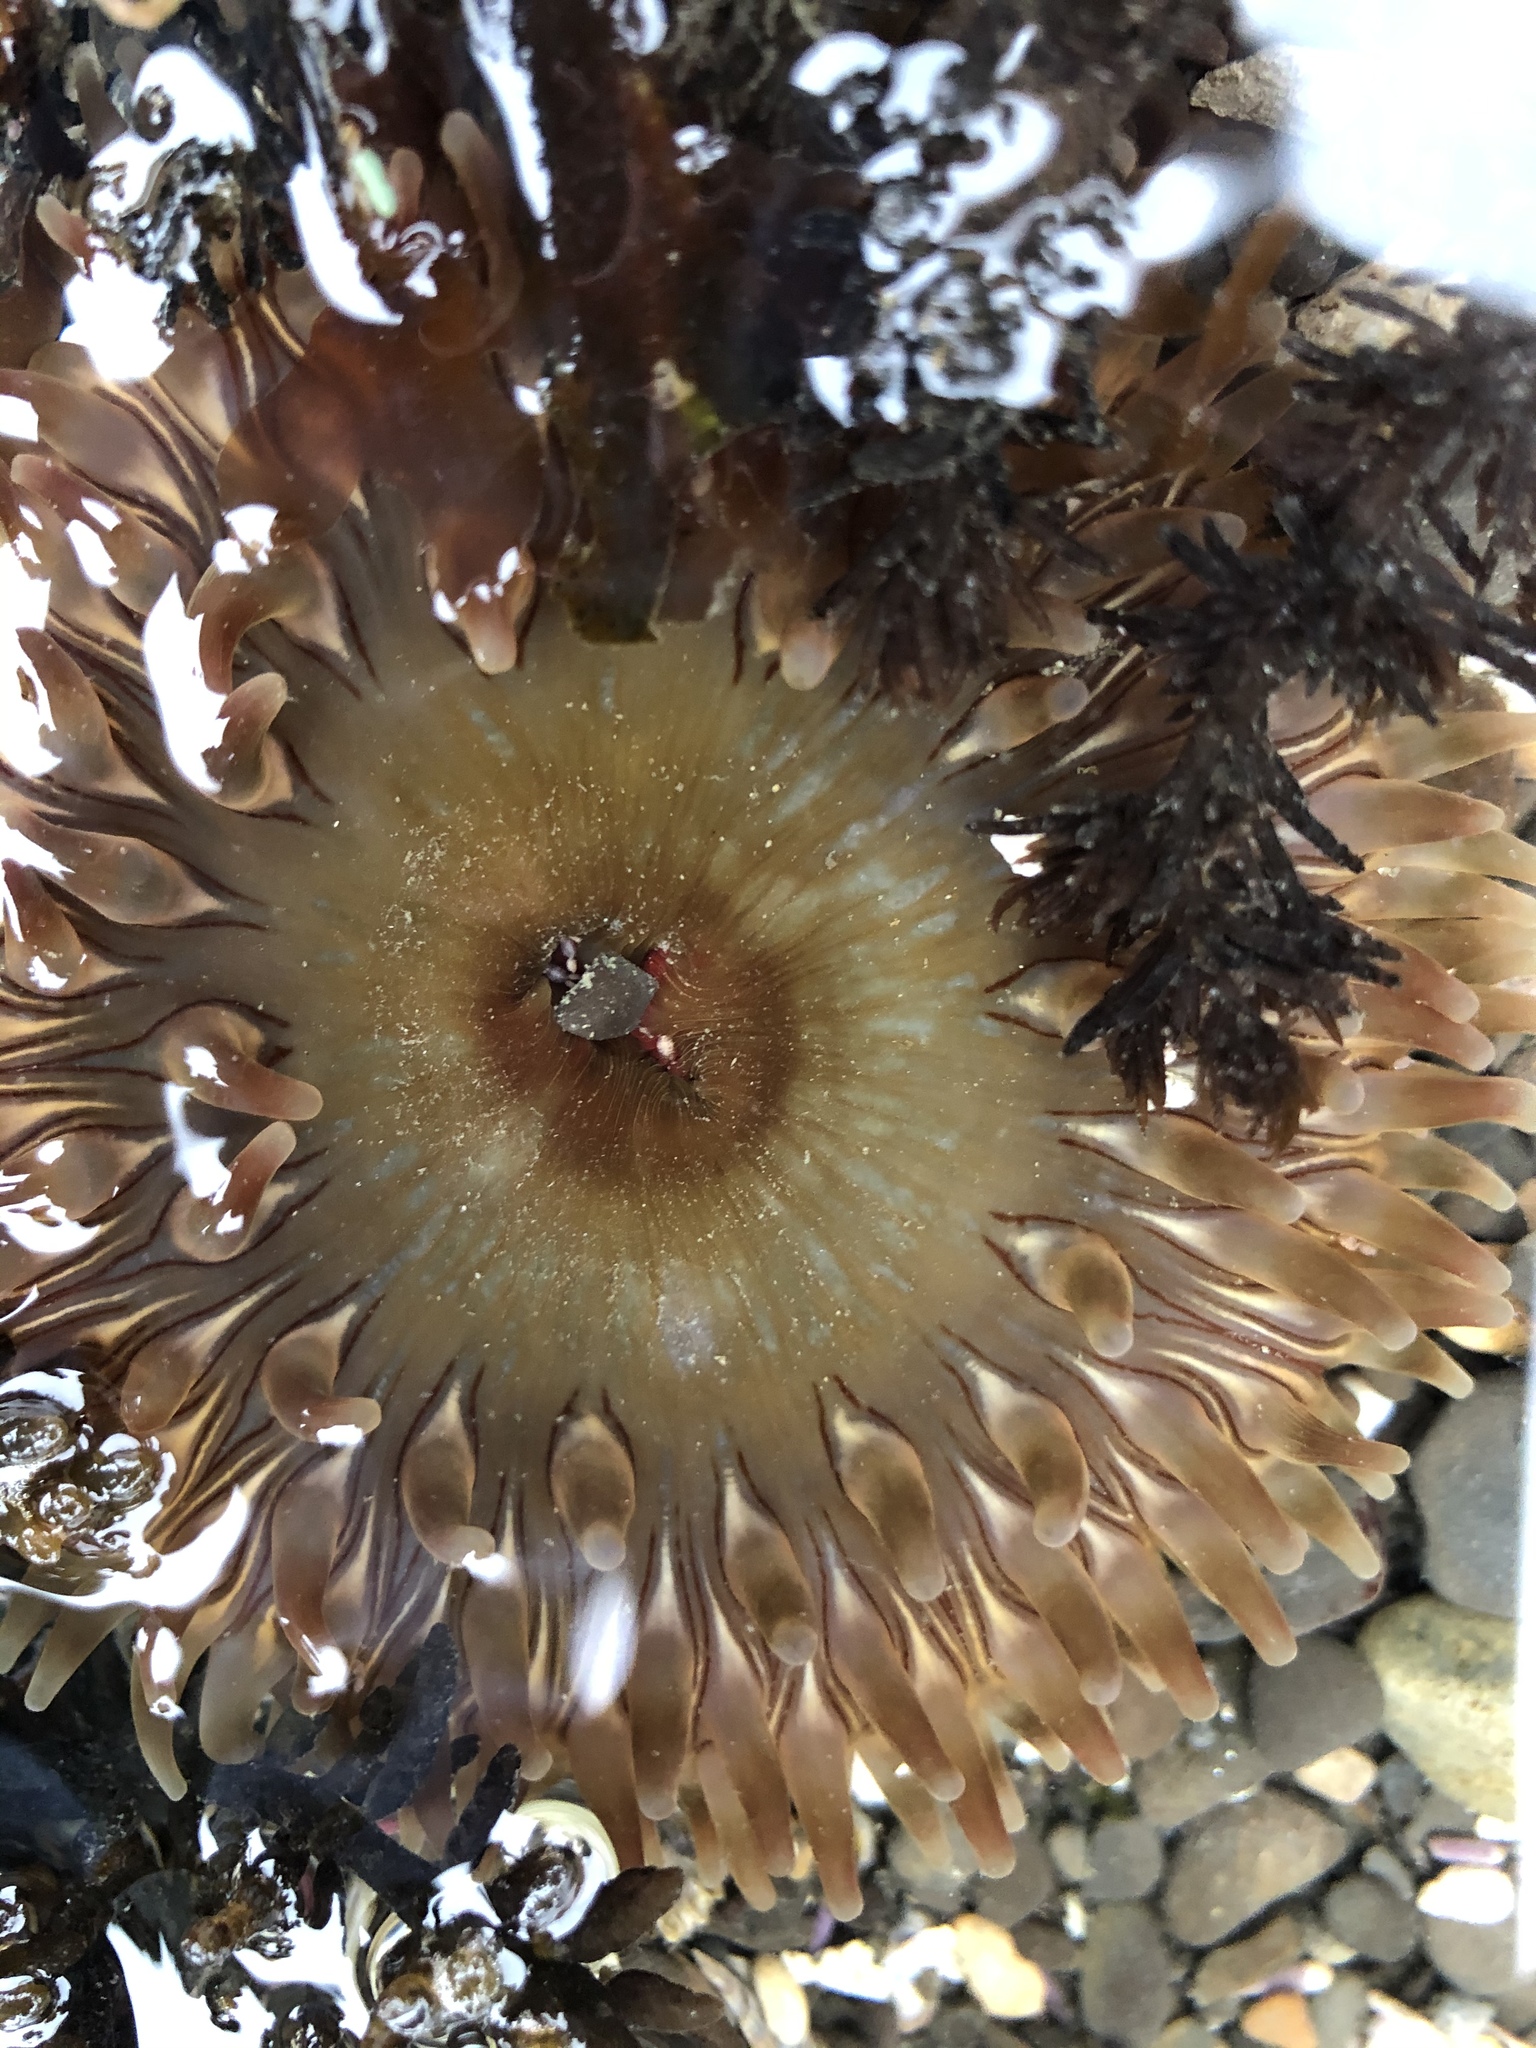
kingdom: Animalia
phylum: Cnidaria
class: Anthozoa
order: Actiniaria
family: Actiniidae
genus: Urticina
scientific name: Urticina clandestina
